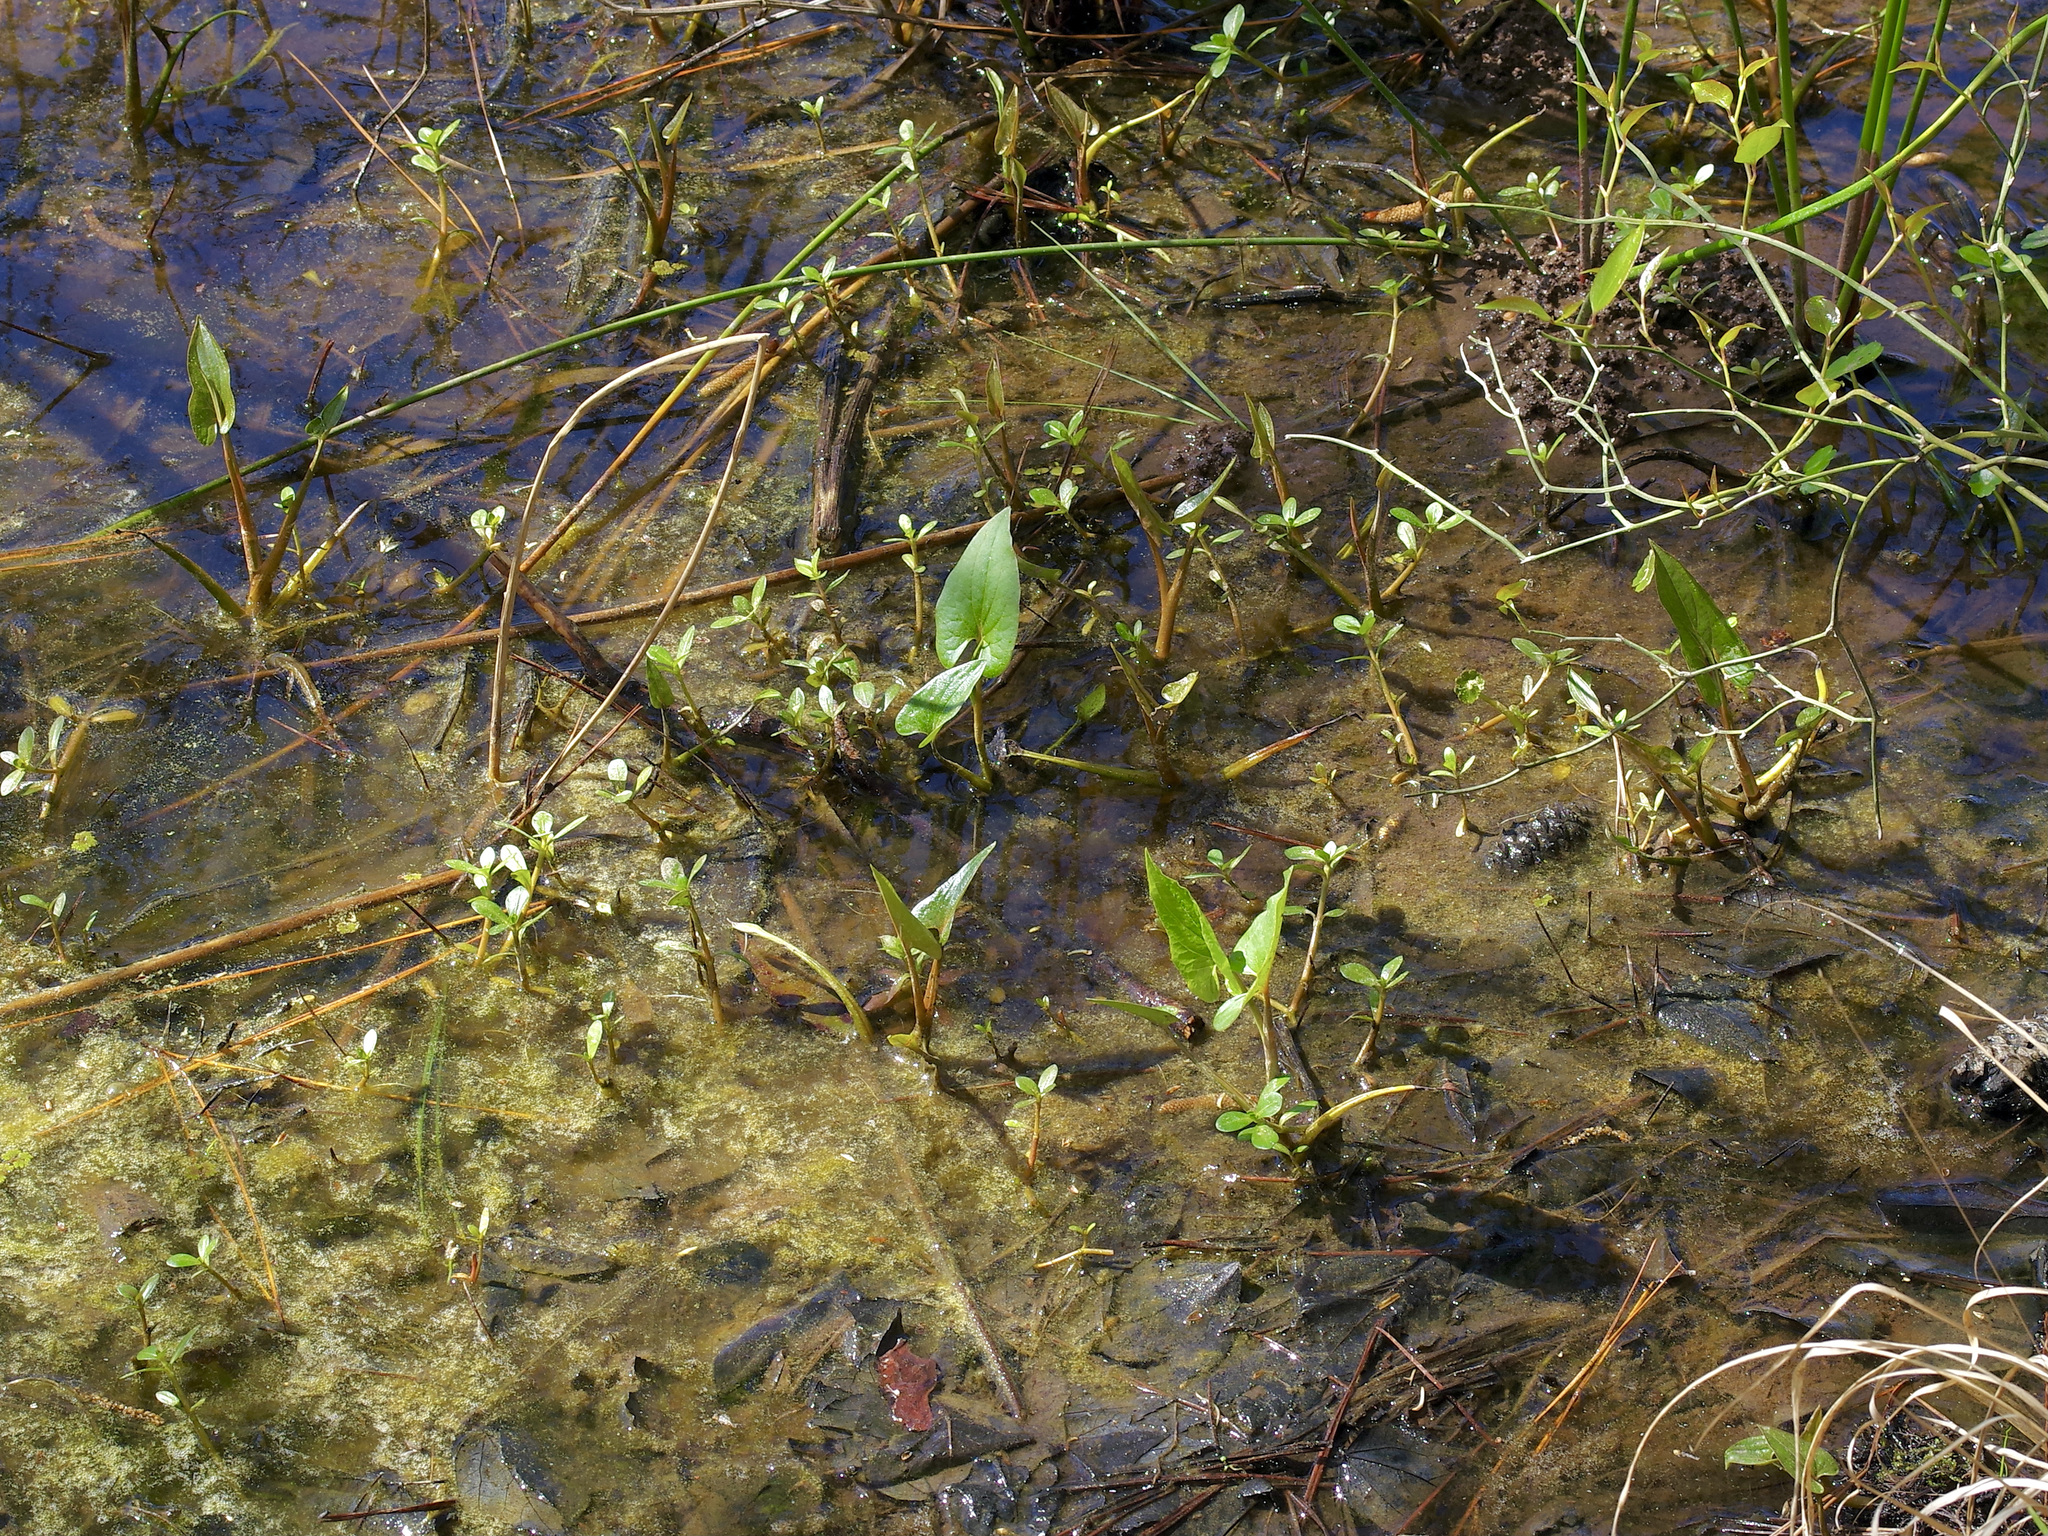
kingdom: Plantae
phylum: Tracheophyta
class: Magnoliopsida
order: Piperales
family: Saururaceae
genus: Saururus
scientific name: Saururus cernuus
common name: Lizard's-tail
